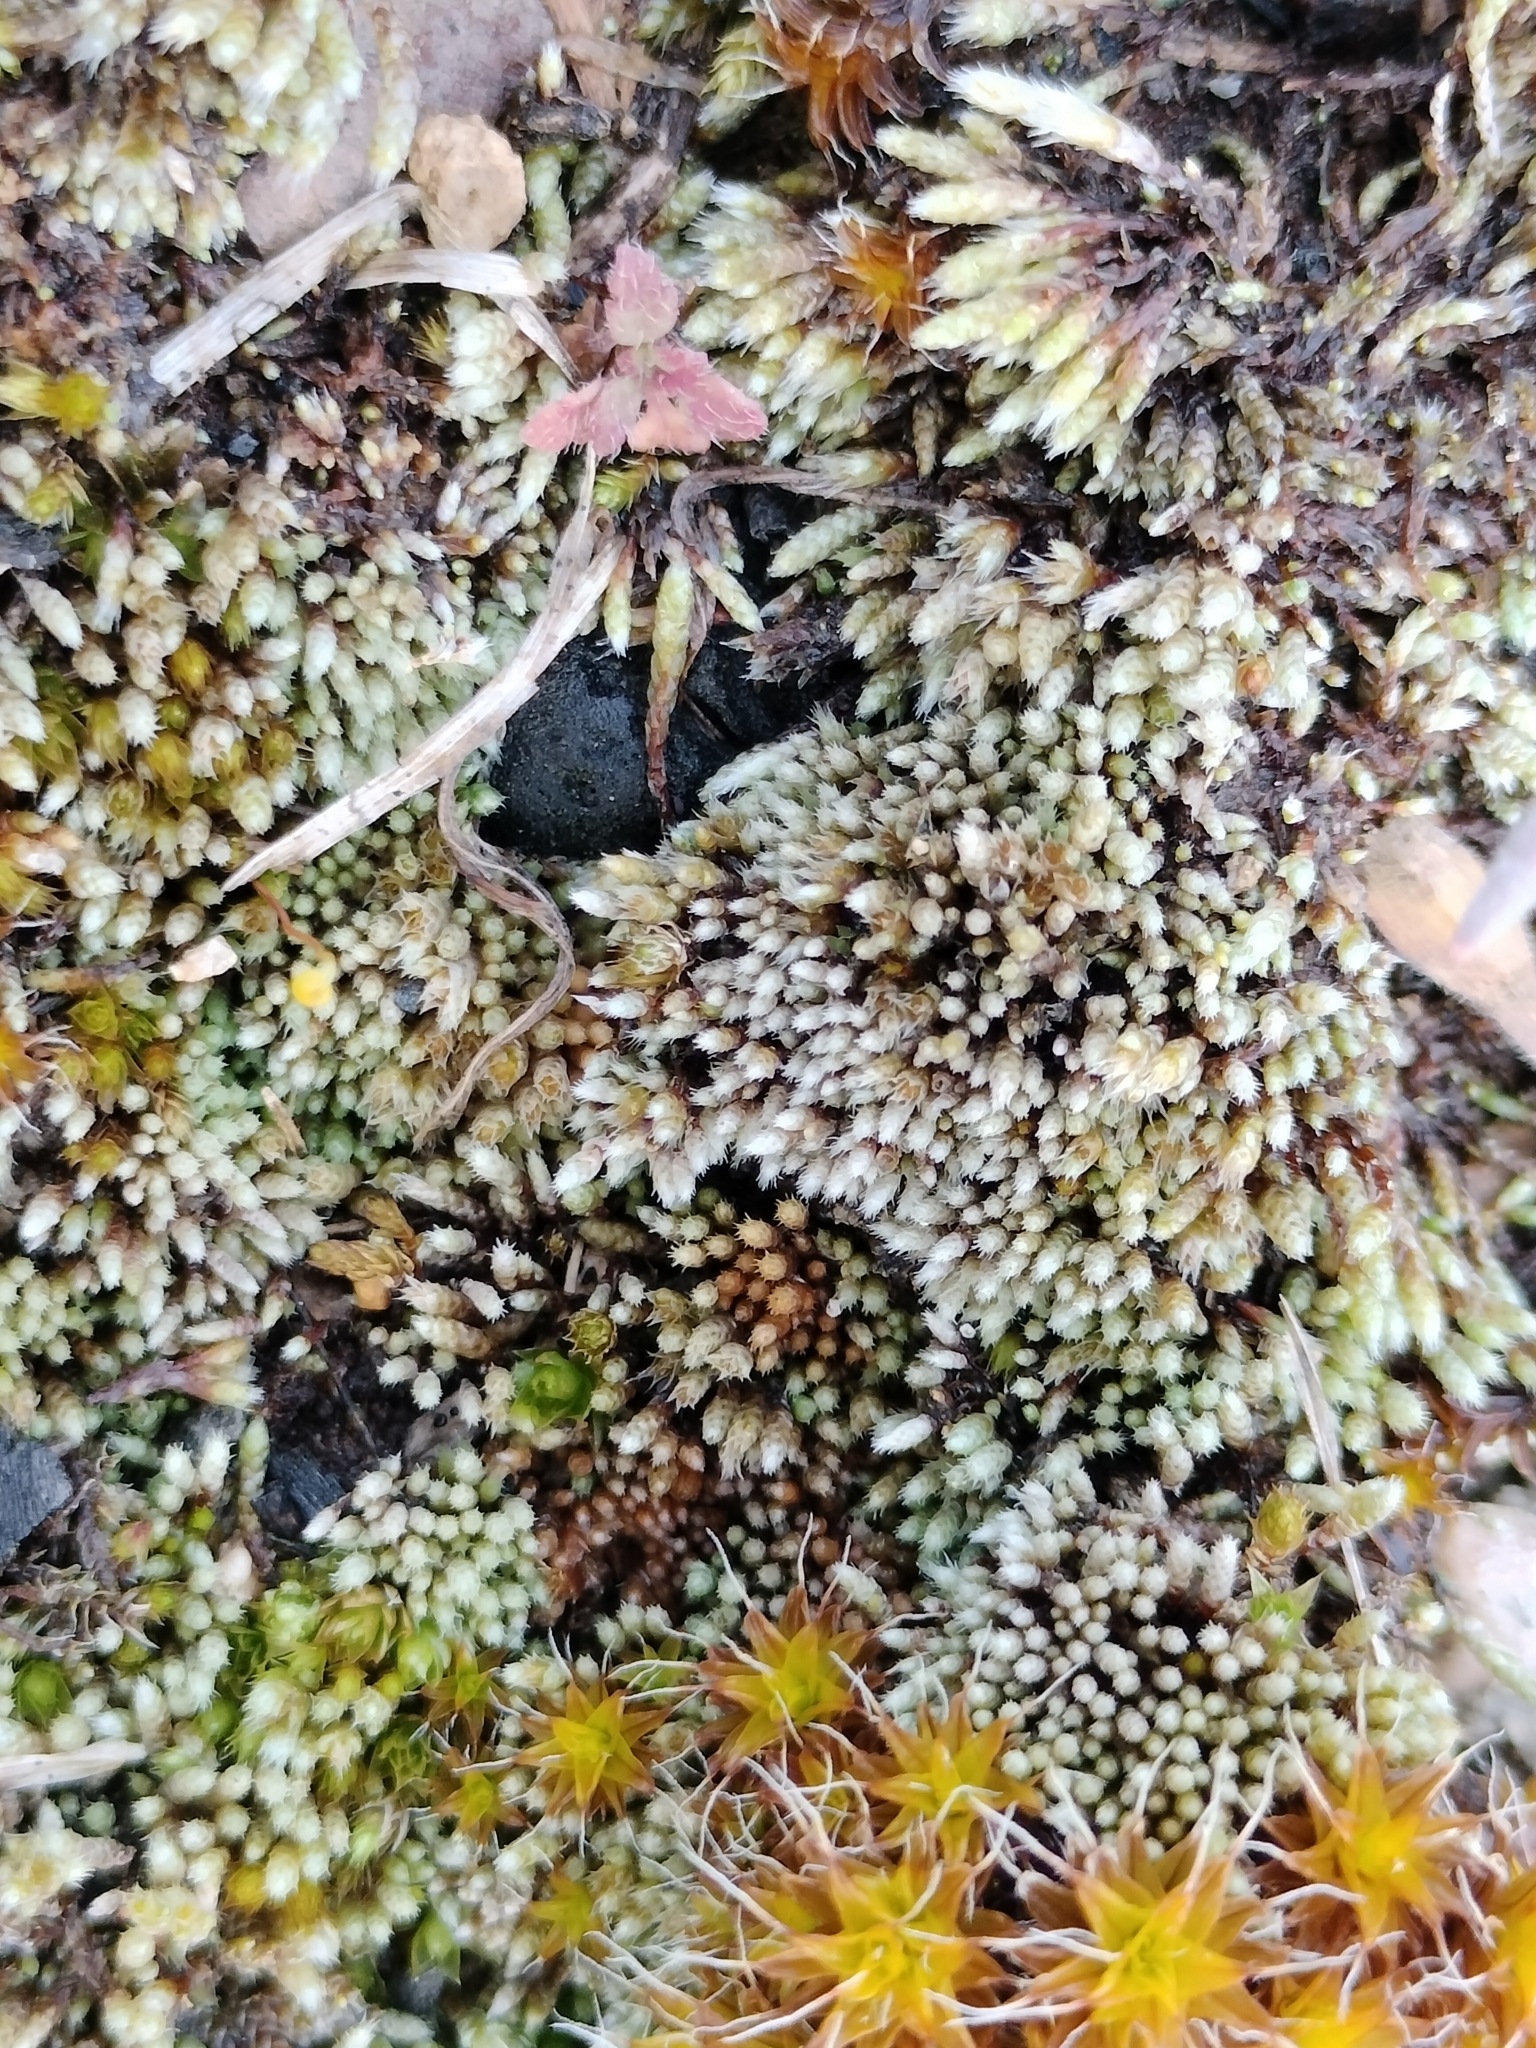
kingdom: Plantae
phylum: Bryophyta
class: Bryopsida
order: Bryales
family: Bryaceae
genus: Bryum
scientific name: Bryum argenteum
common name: Silver-moss
